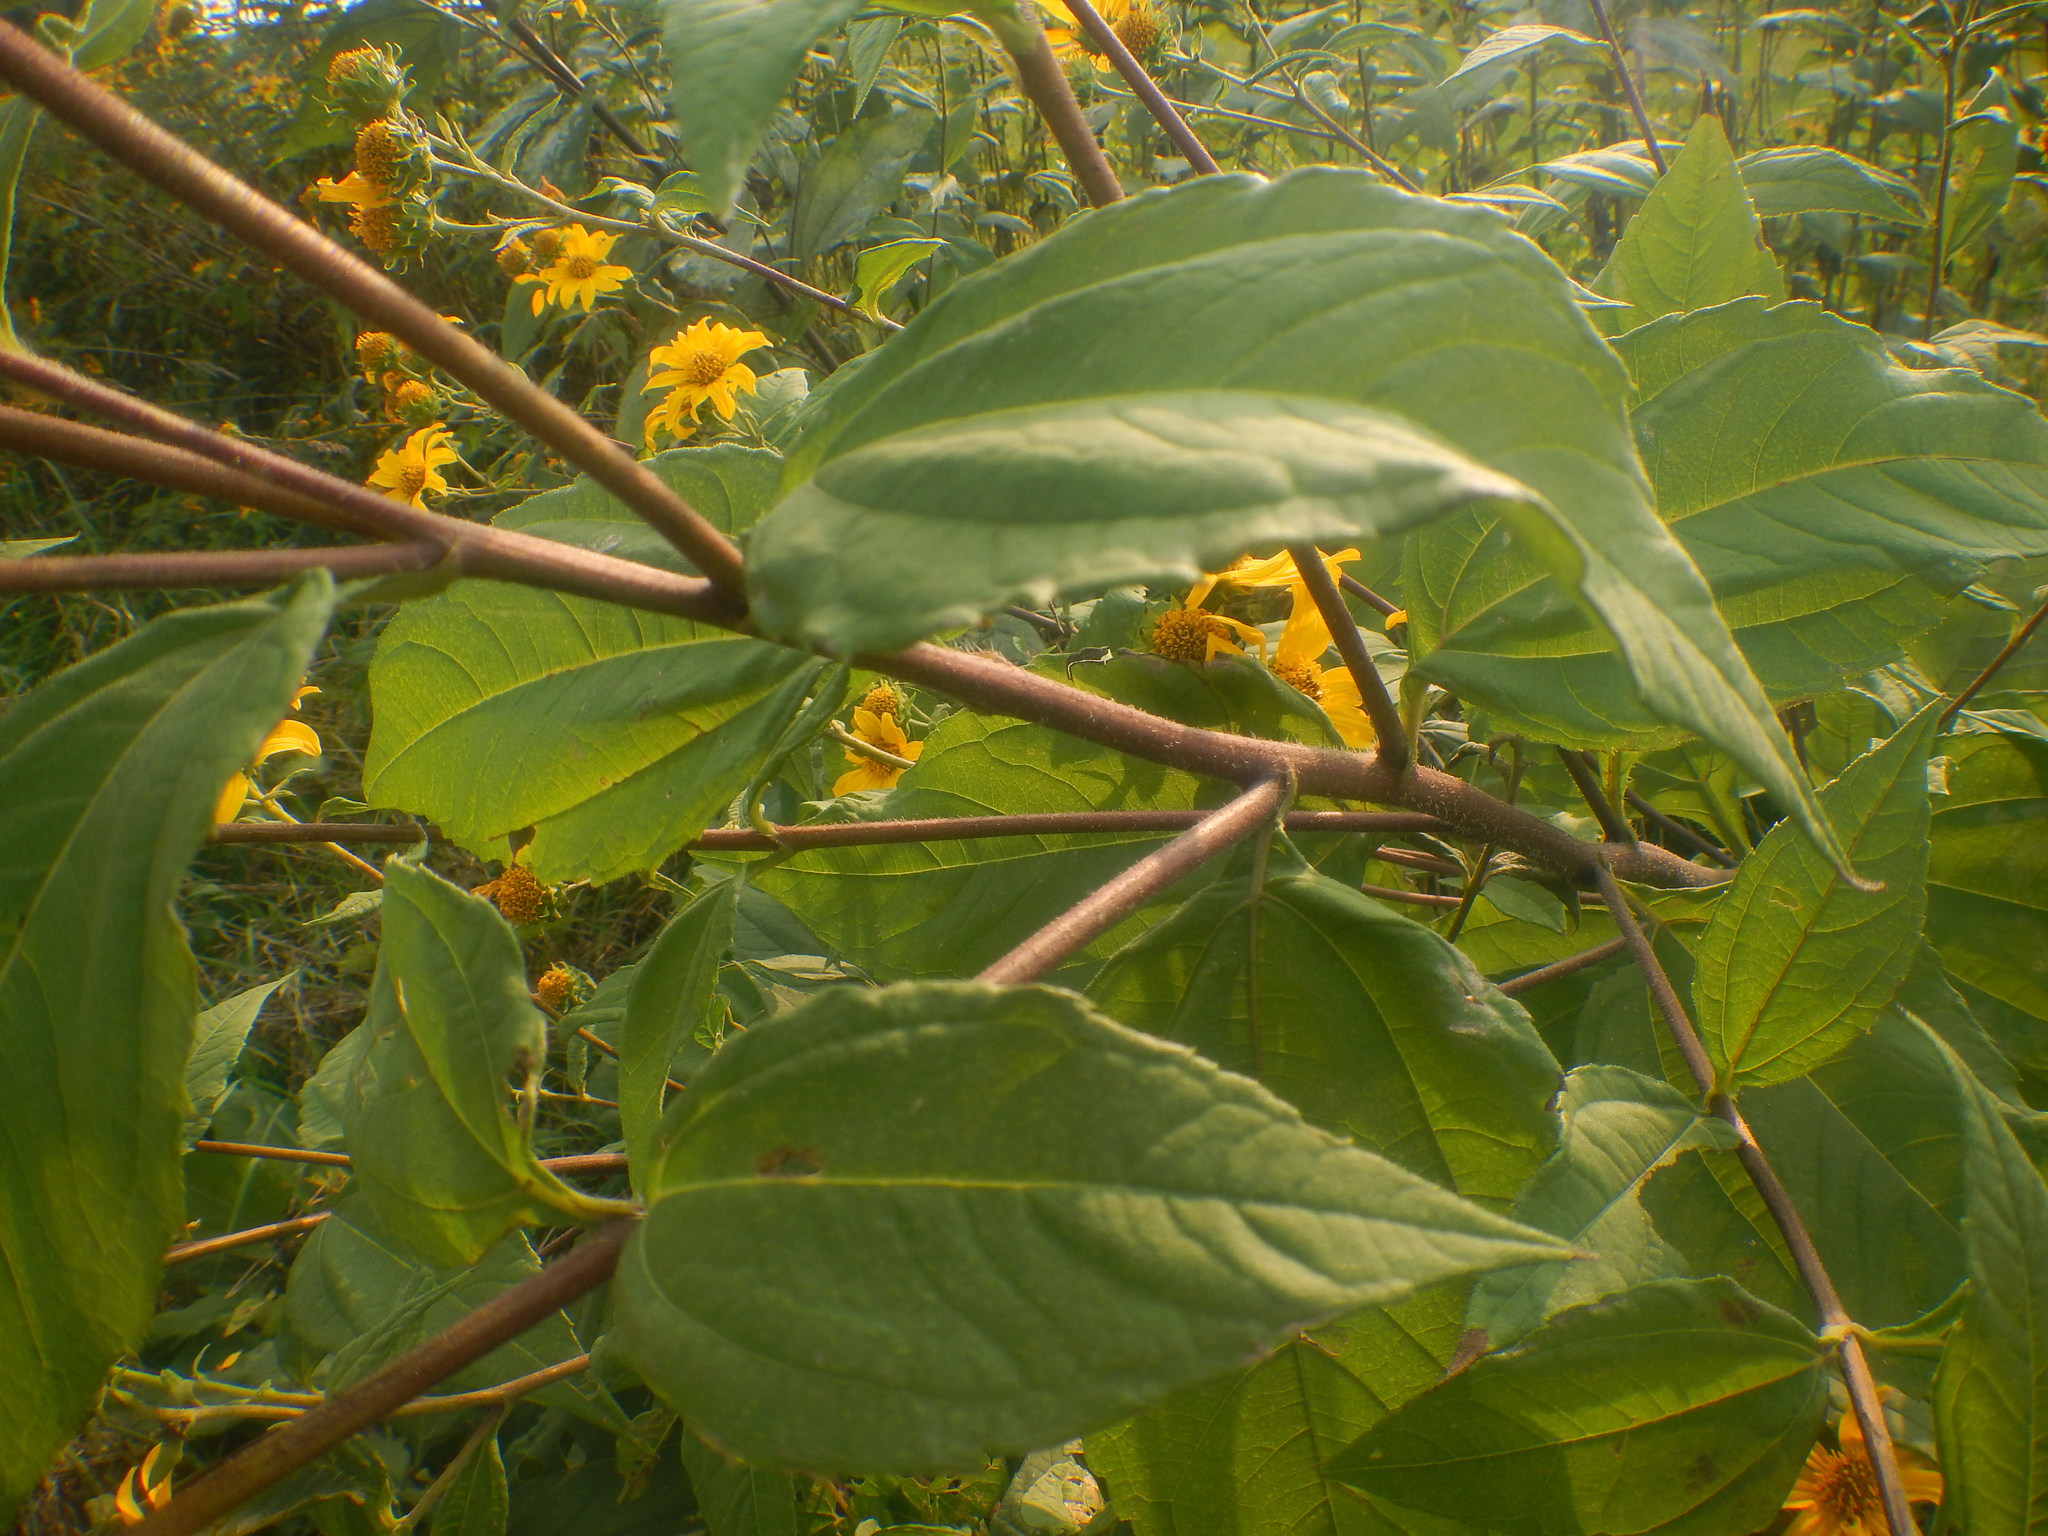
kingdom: Plantae
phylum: Tracheophyta
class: Magnoliopsida
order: Asterales
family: Asteraceae
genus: Helianthus
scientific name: Helianthus tuberosus
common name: Jerusalem artichoke
